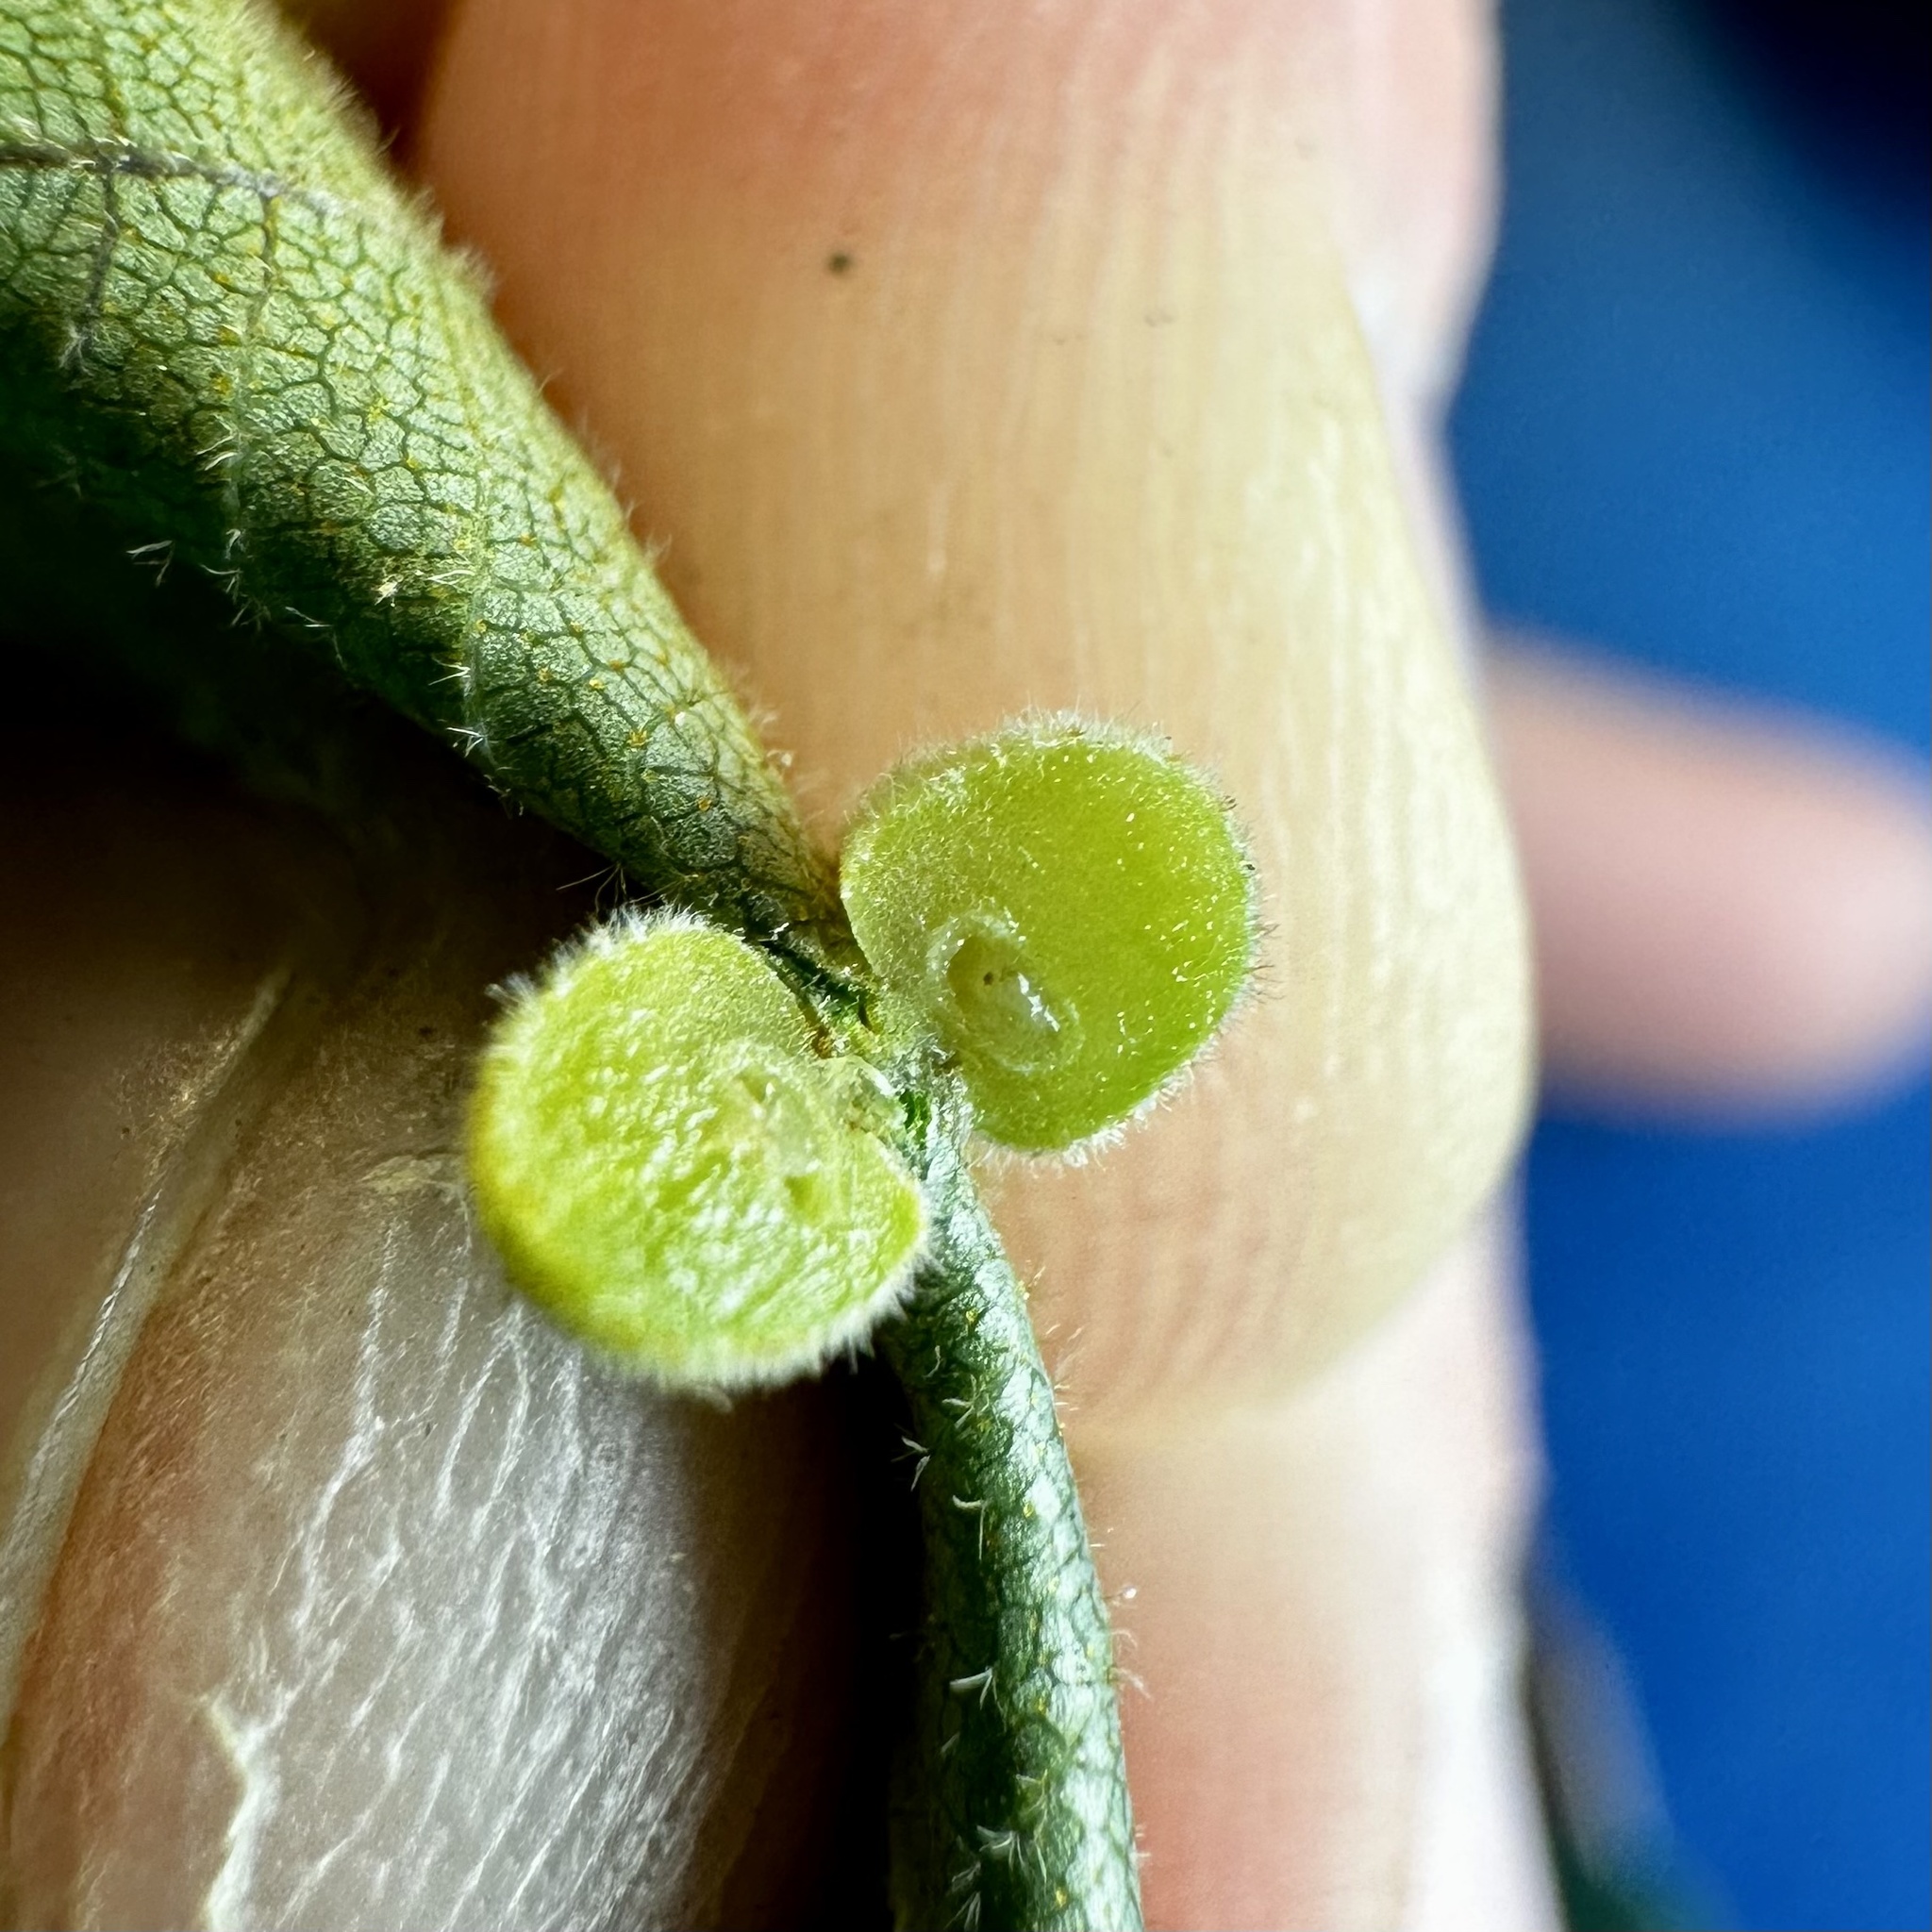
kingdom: Animalia
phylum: Arthropoda
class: Insecta
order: Diptera
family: Cecidomyiidae
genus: Caryomyia
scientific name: Caryomyia persicoides
